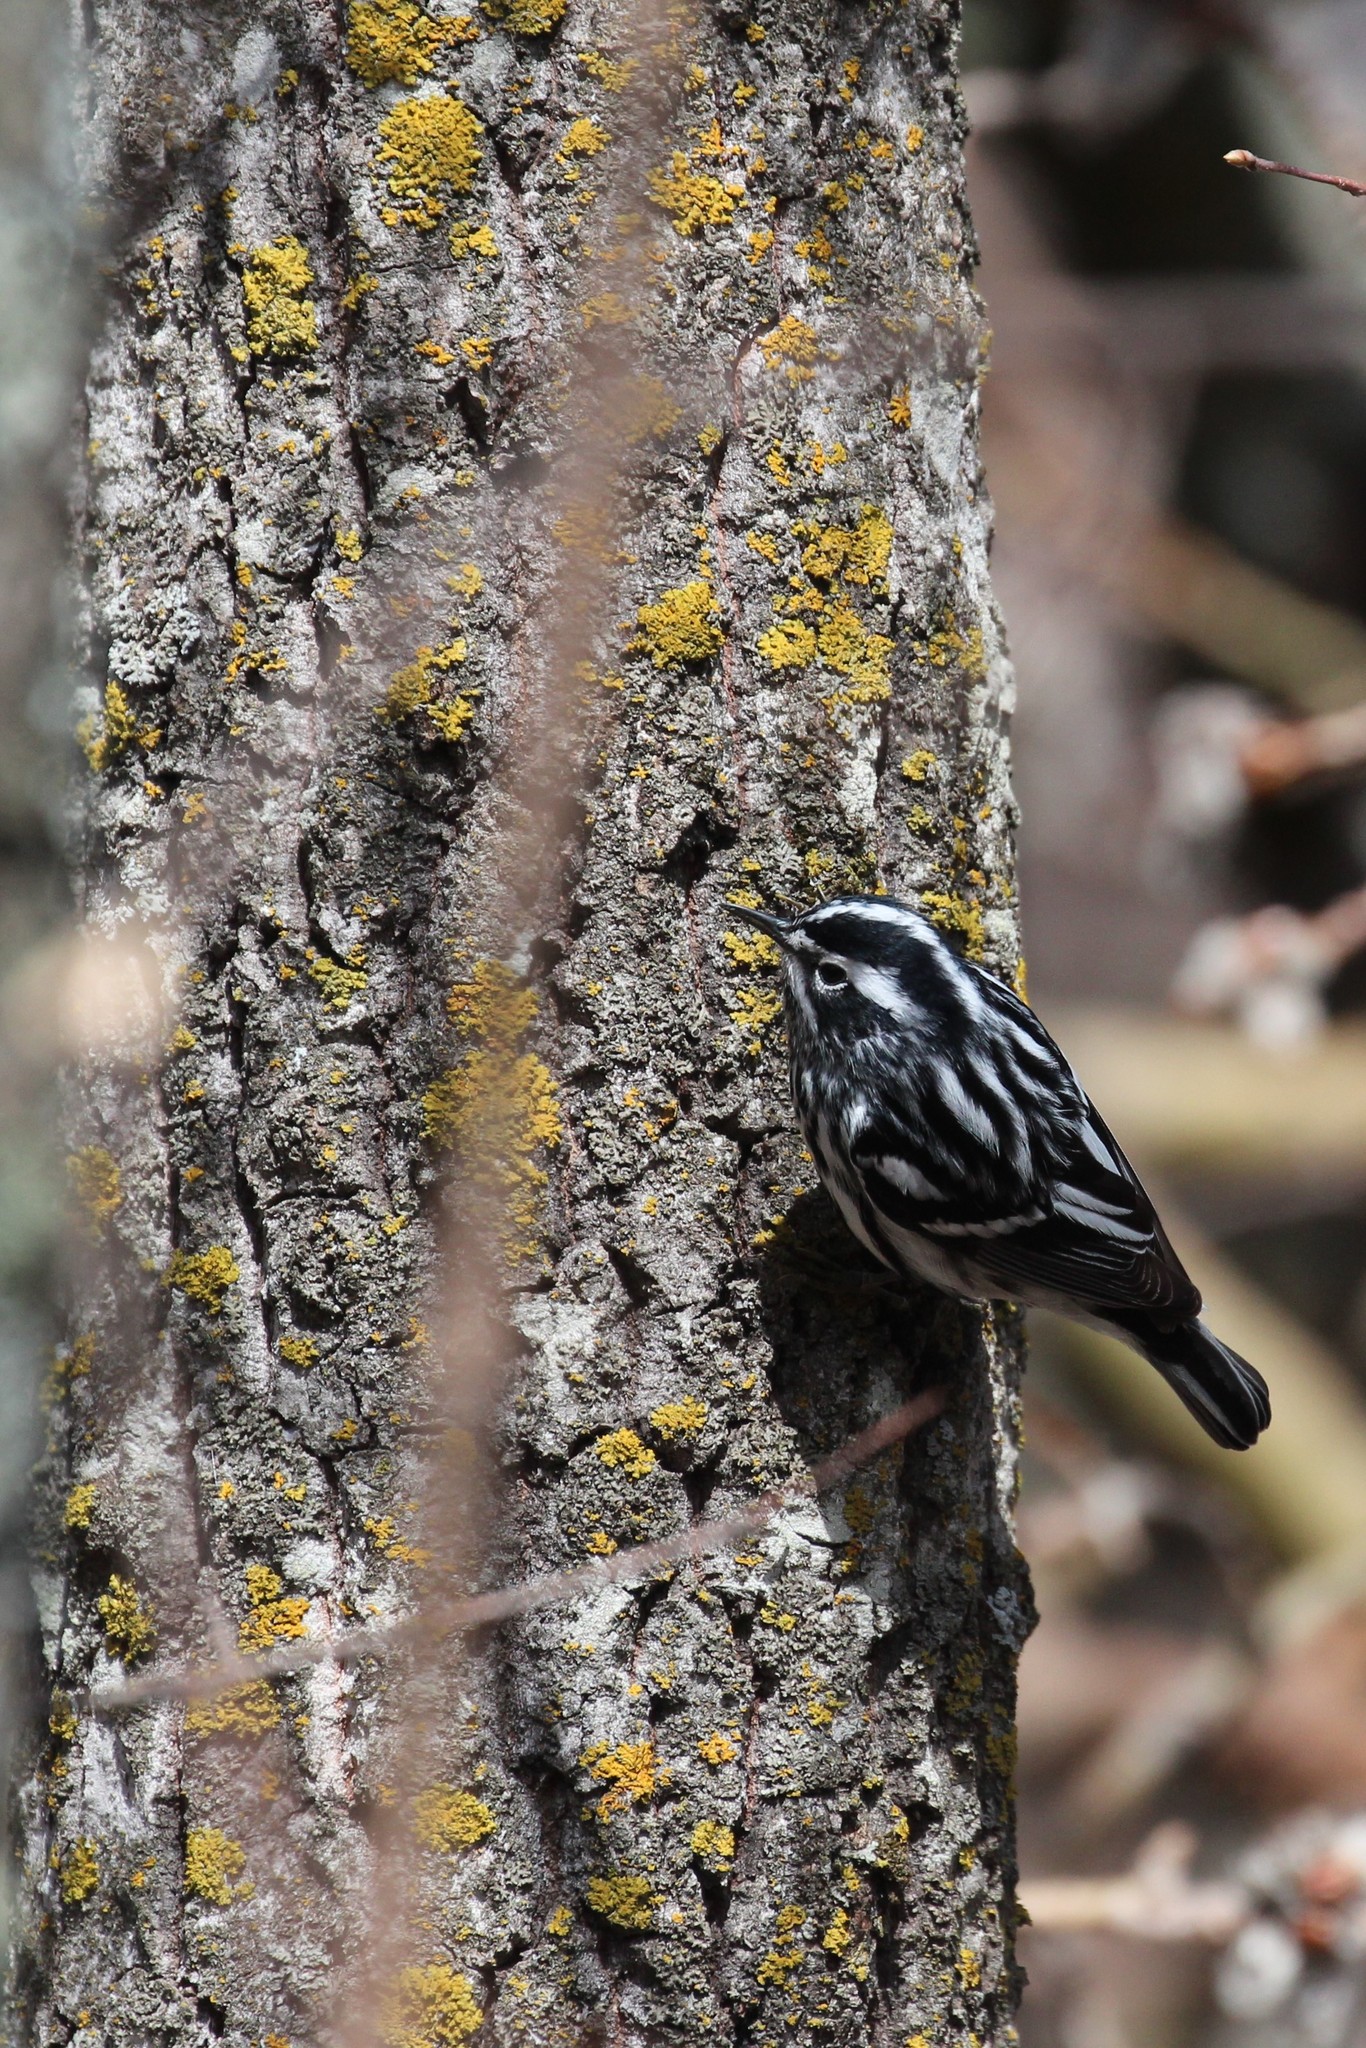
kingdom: Animalia
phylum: Chordata
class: Aves
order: Passeriformes
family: Parulidae
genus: Mniotilta
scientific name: Mniotilta varia
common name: Black-and-white warbler
